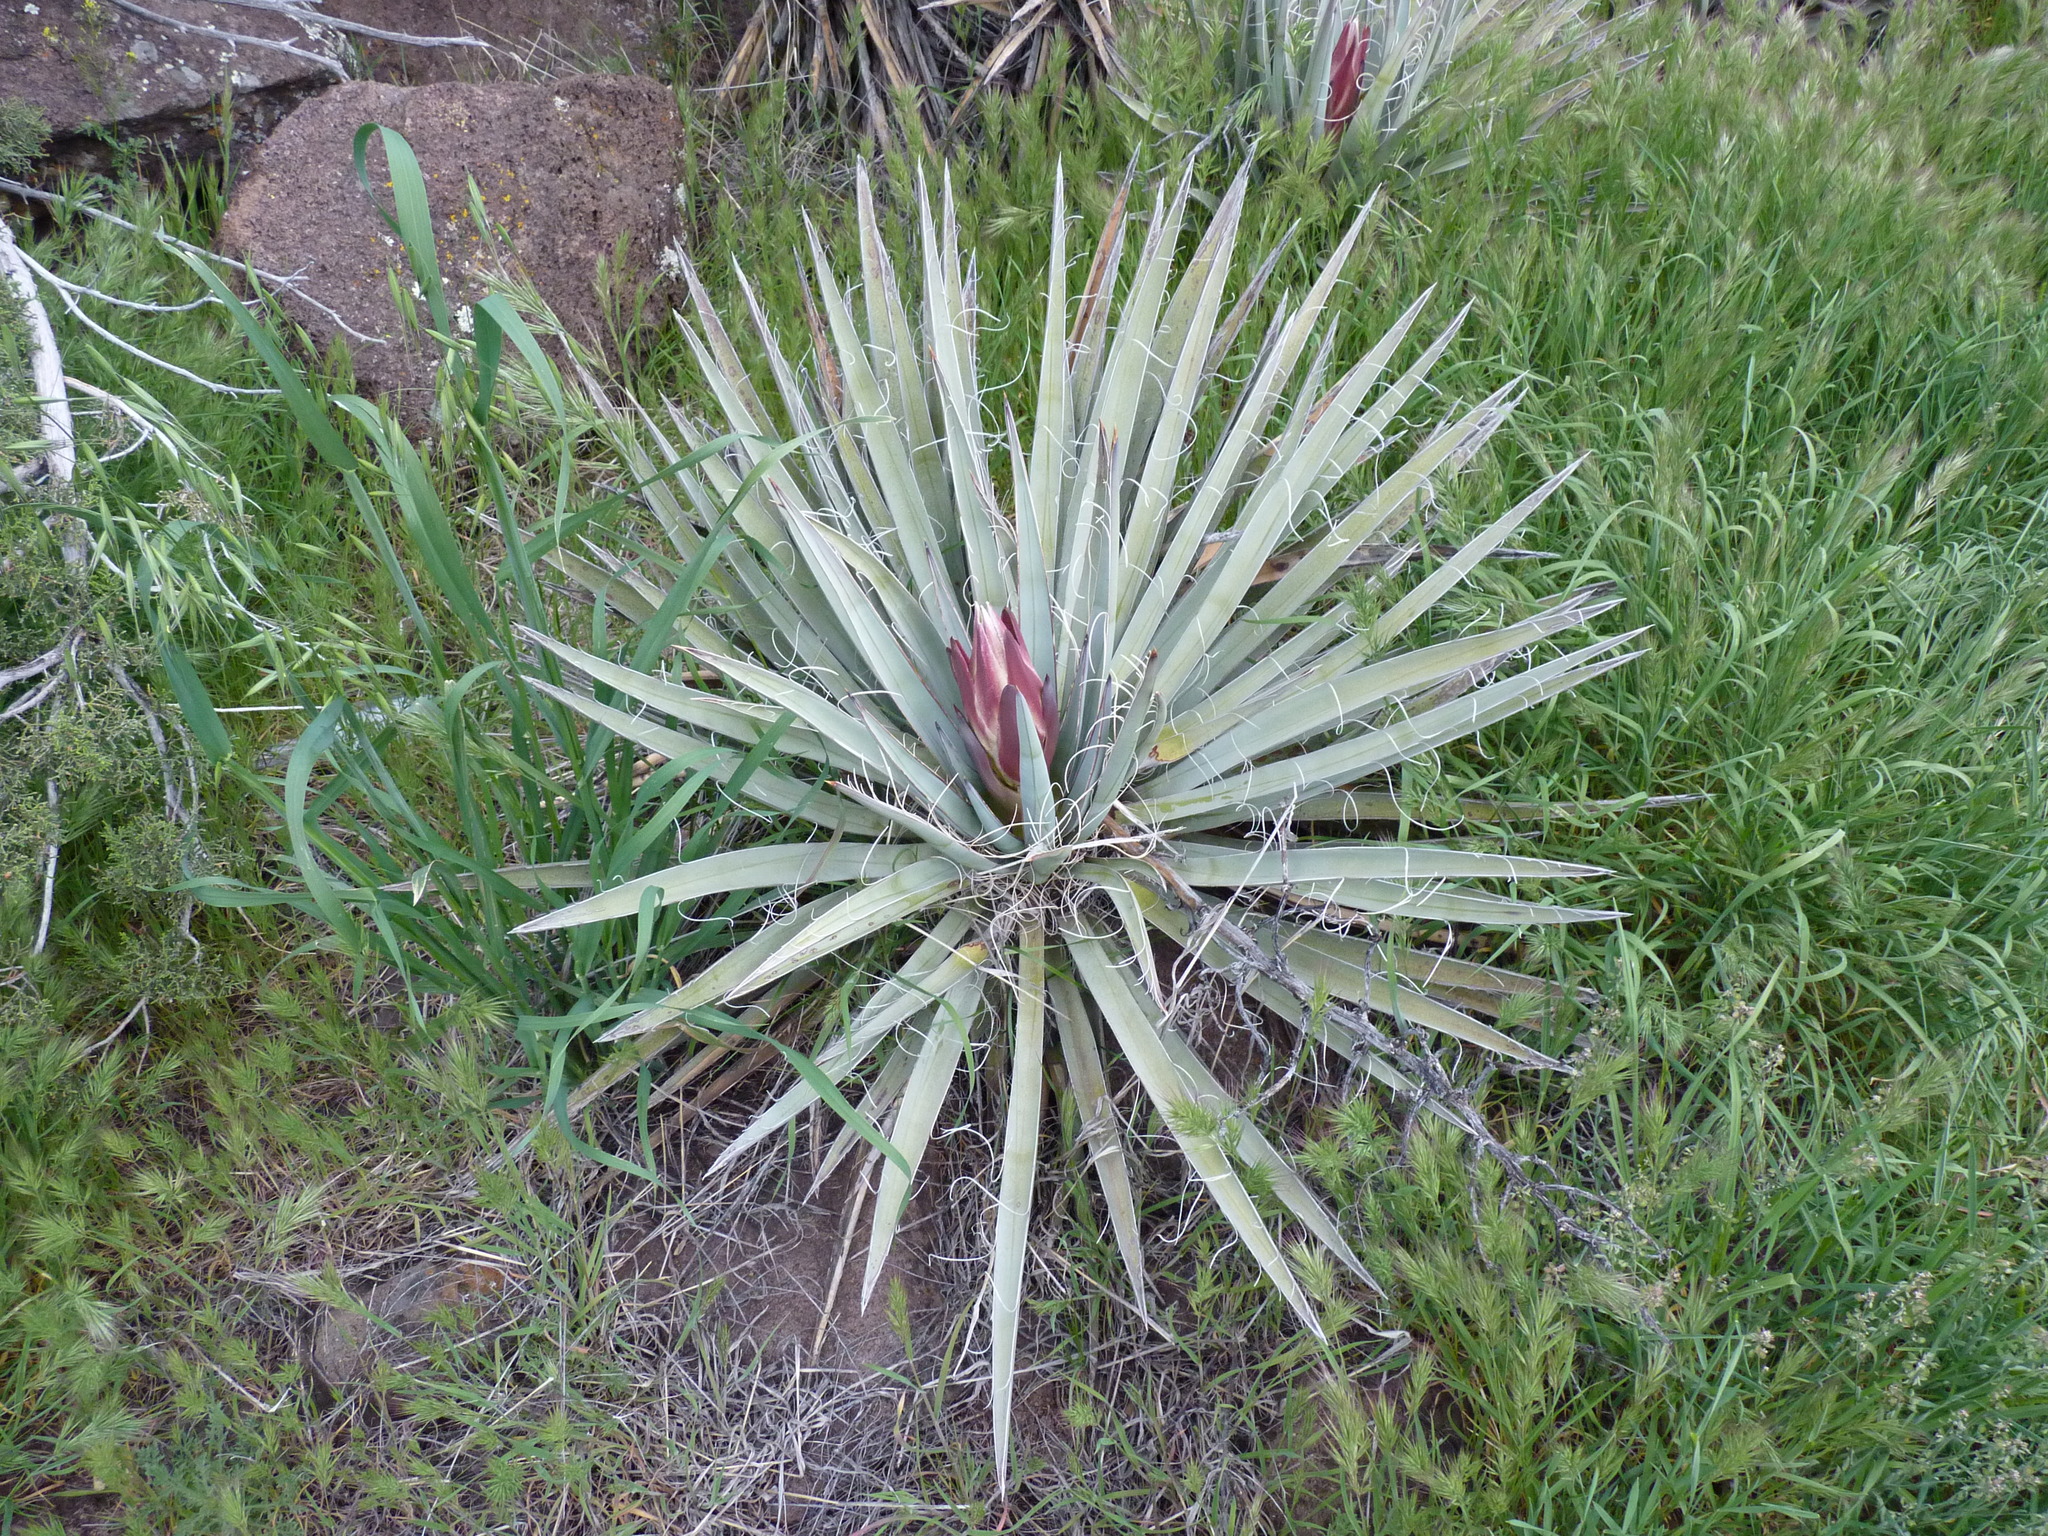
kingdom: Plantae
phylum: Tracheophyta
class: Liliopsida
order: Asparagales
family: Asparagaceae
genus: Yucca
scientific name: Yucca baccata
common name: Banana yucca
